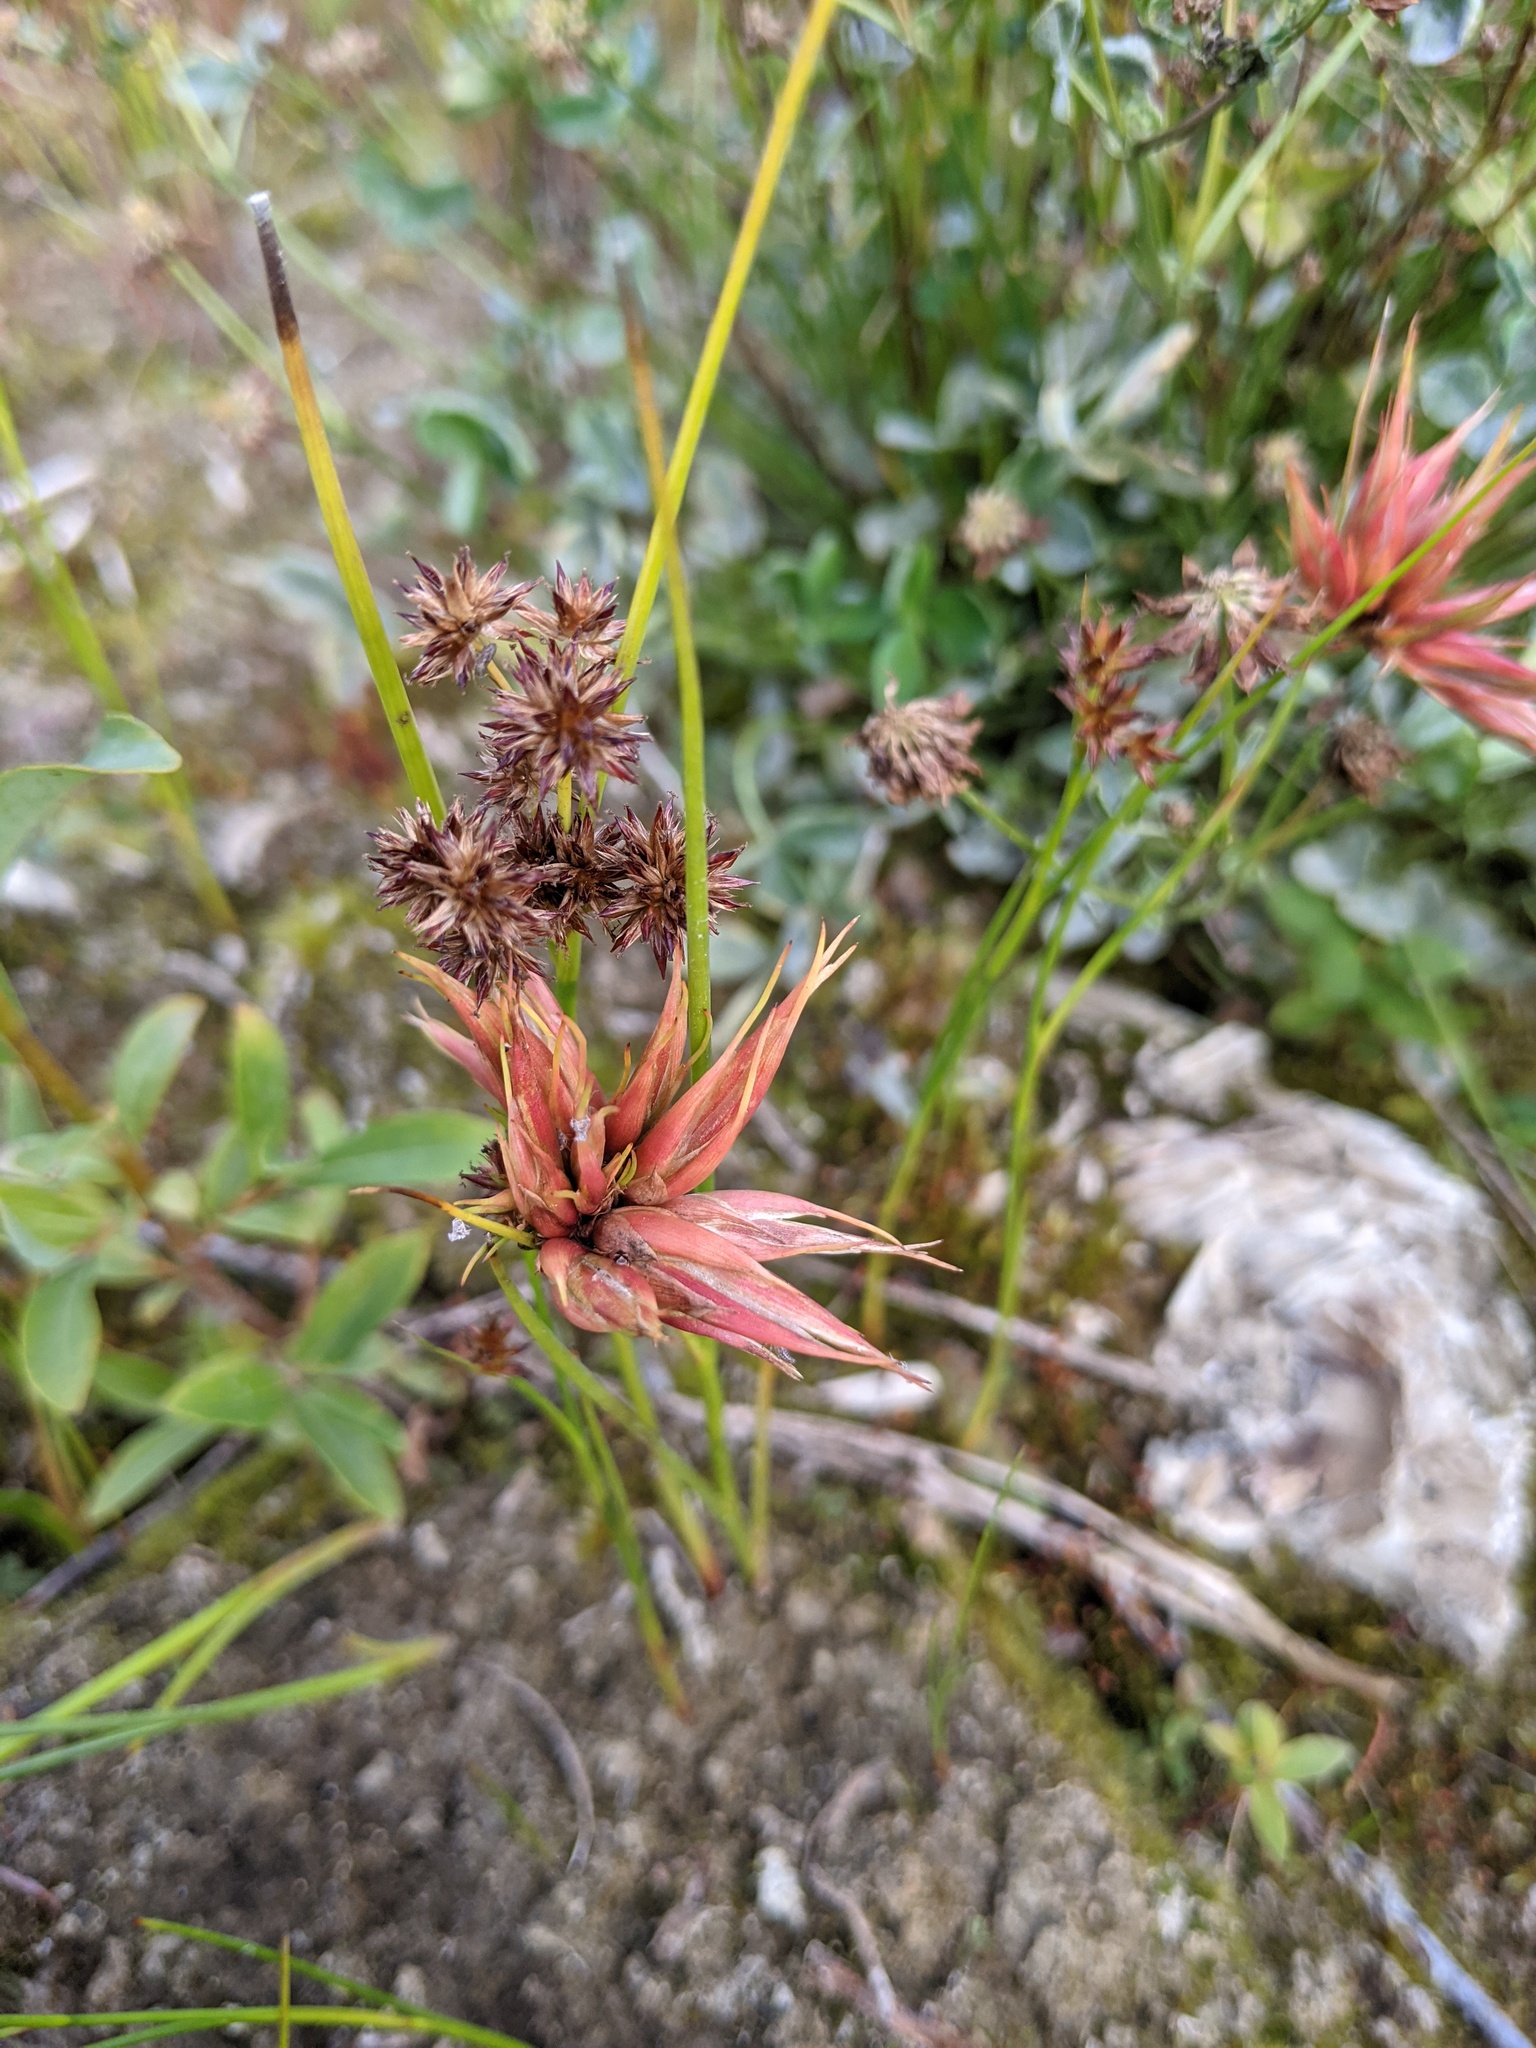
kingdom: Plantae
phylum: Tracheophyta
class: Liliopsida
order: Poales
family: Juncaceae
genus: Juncus
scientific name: Juncus nodosus
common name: Knotted rush
